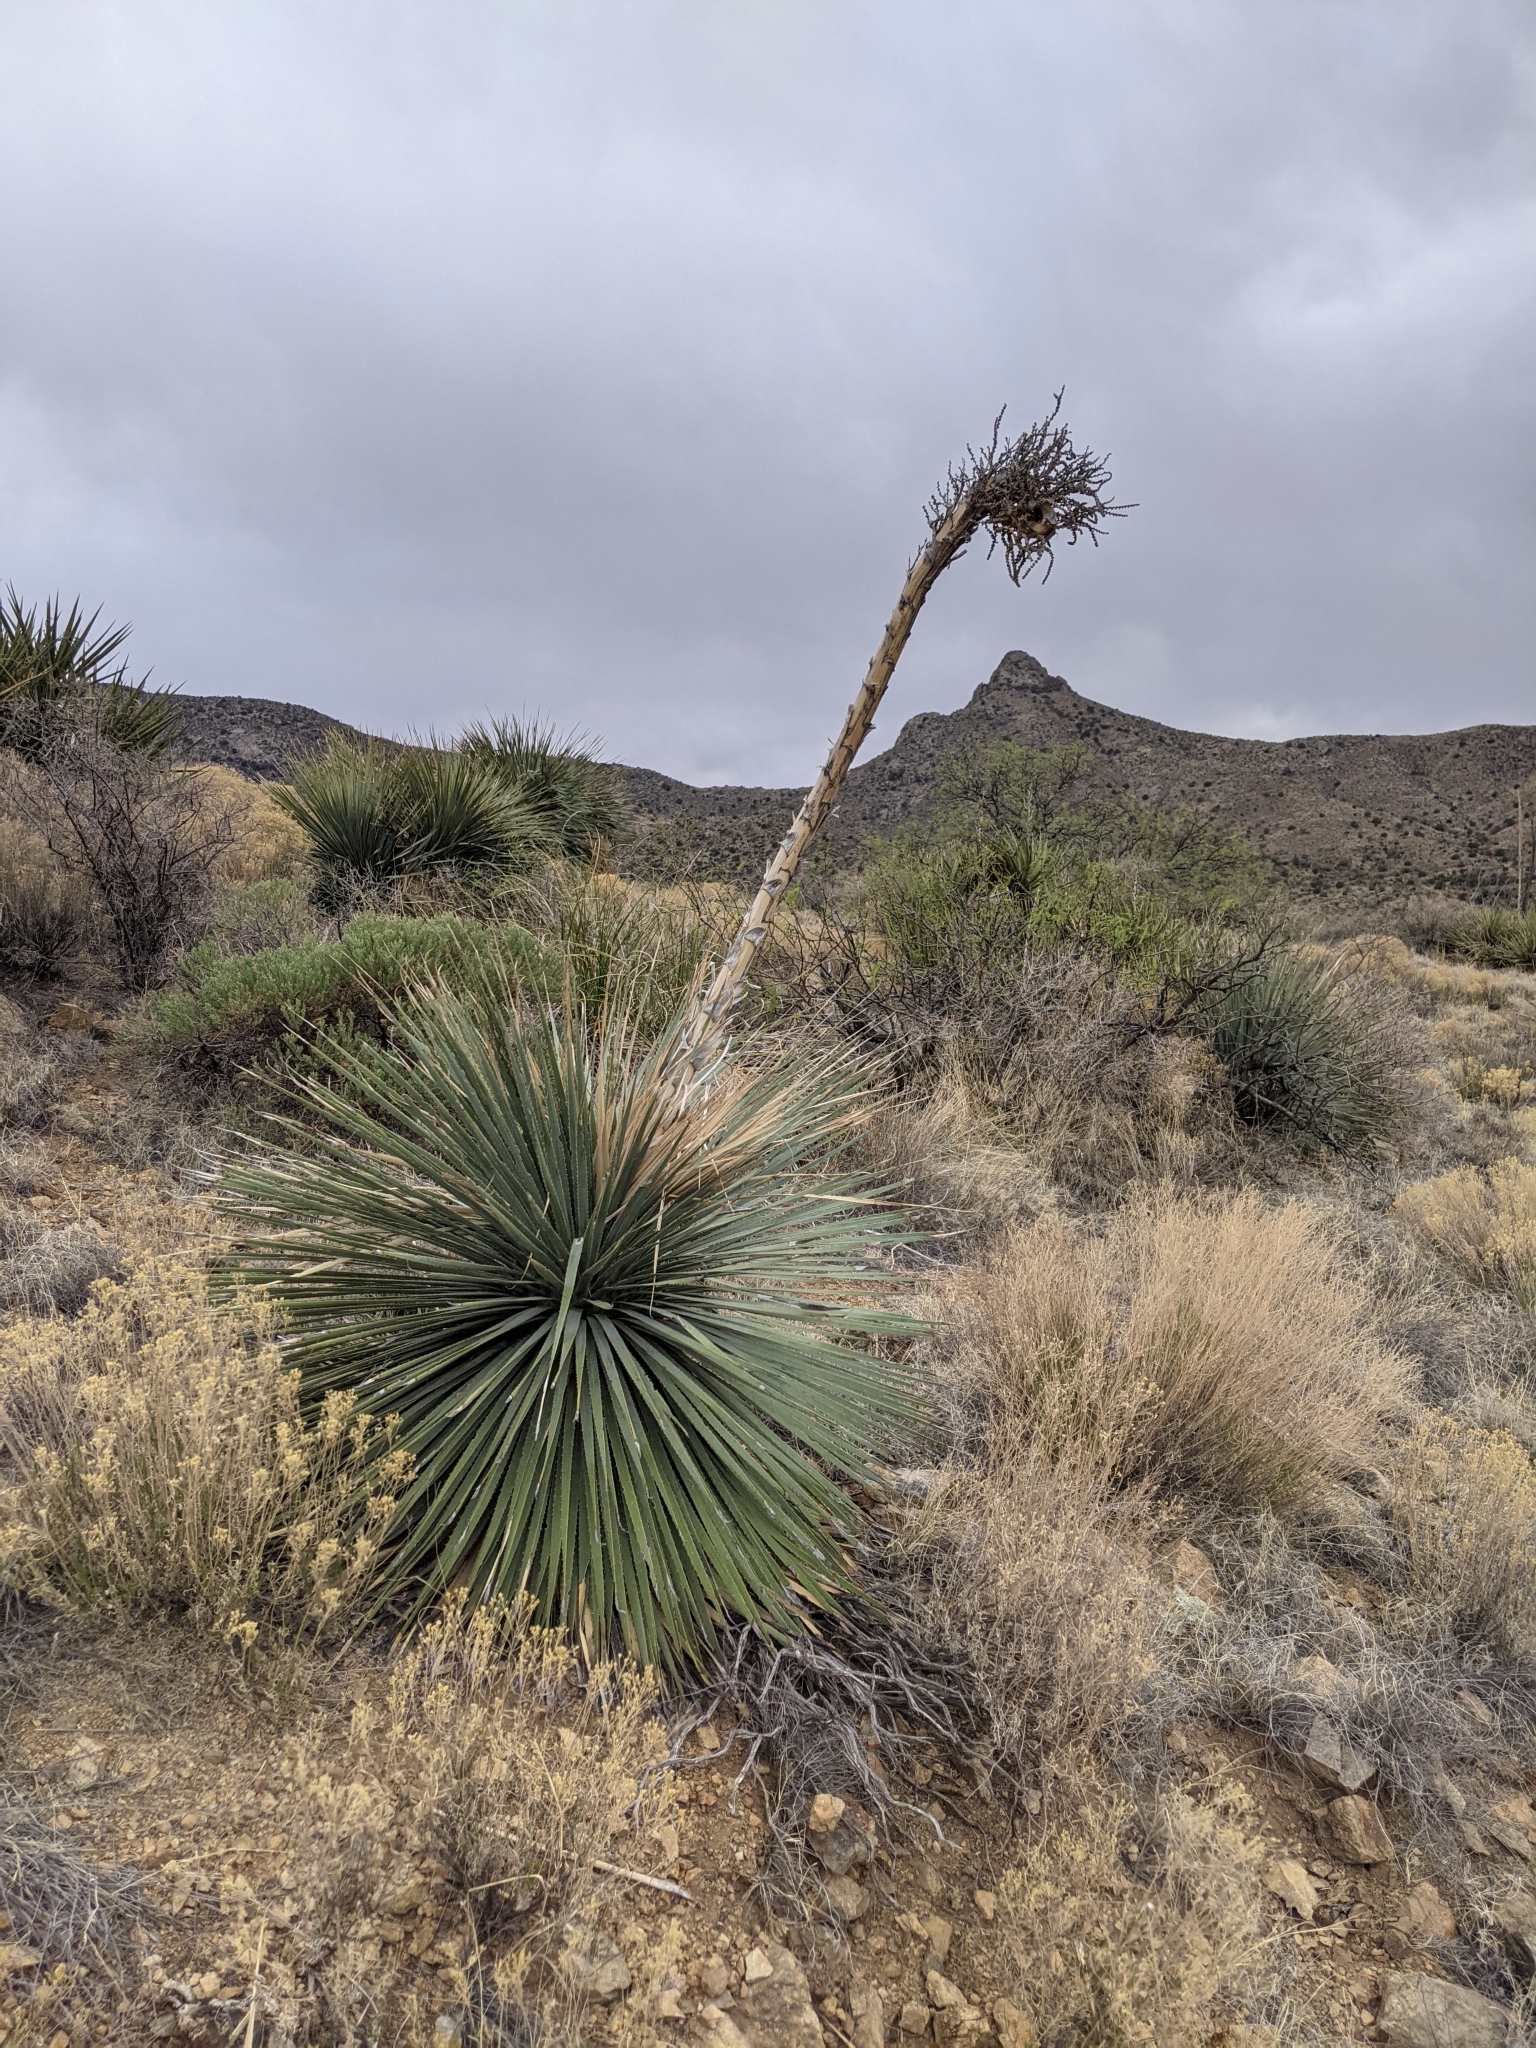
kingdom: Plantae
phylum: Tracheophyta
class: Liliopsida
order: Asparagales
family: Asparagaceae
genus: Dasylirion
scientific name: Dasylirion wheeleri
